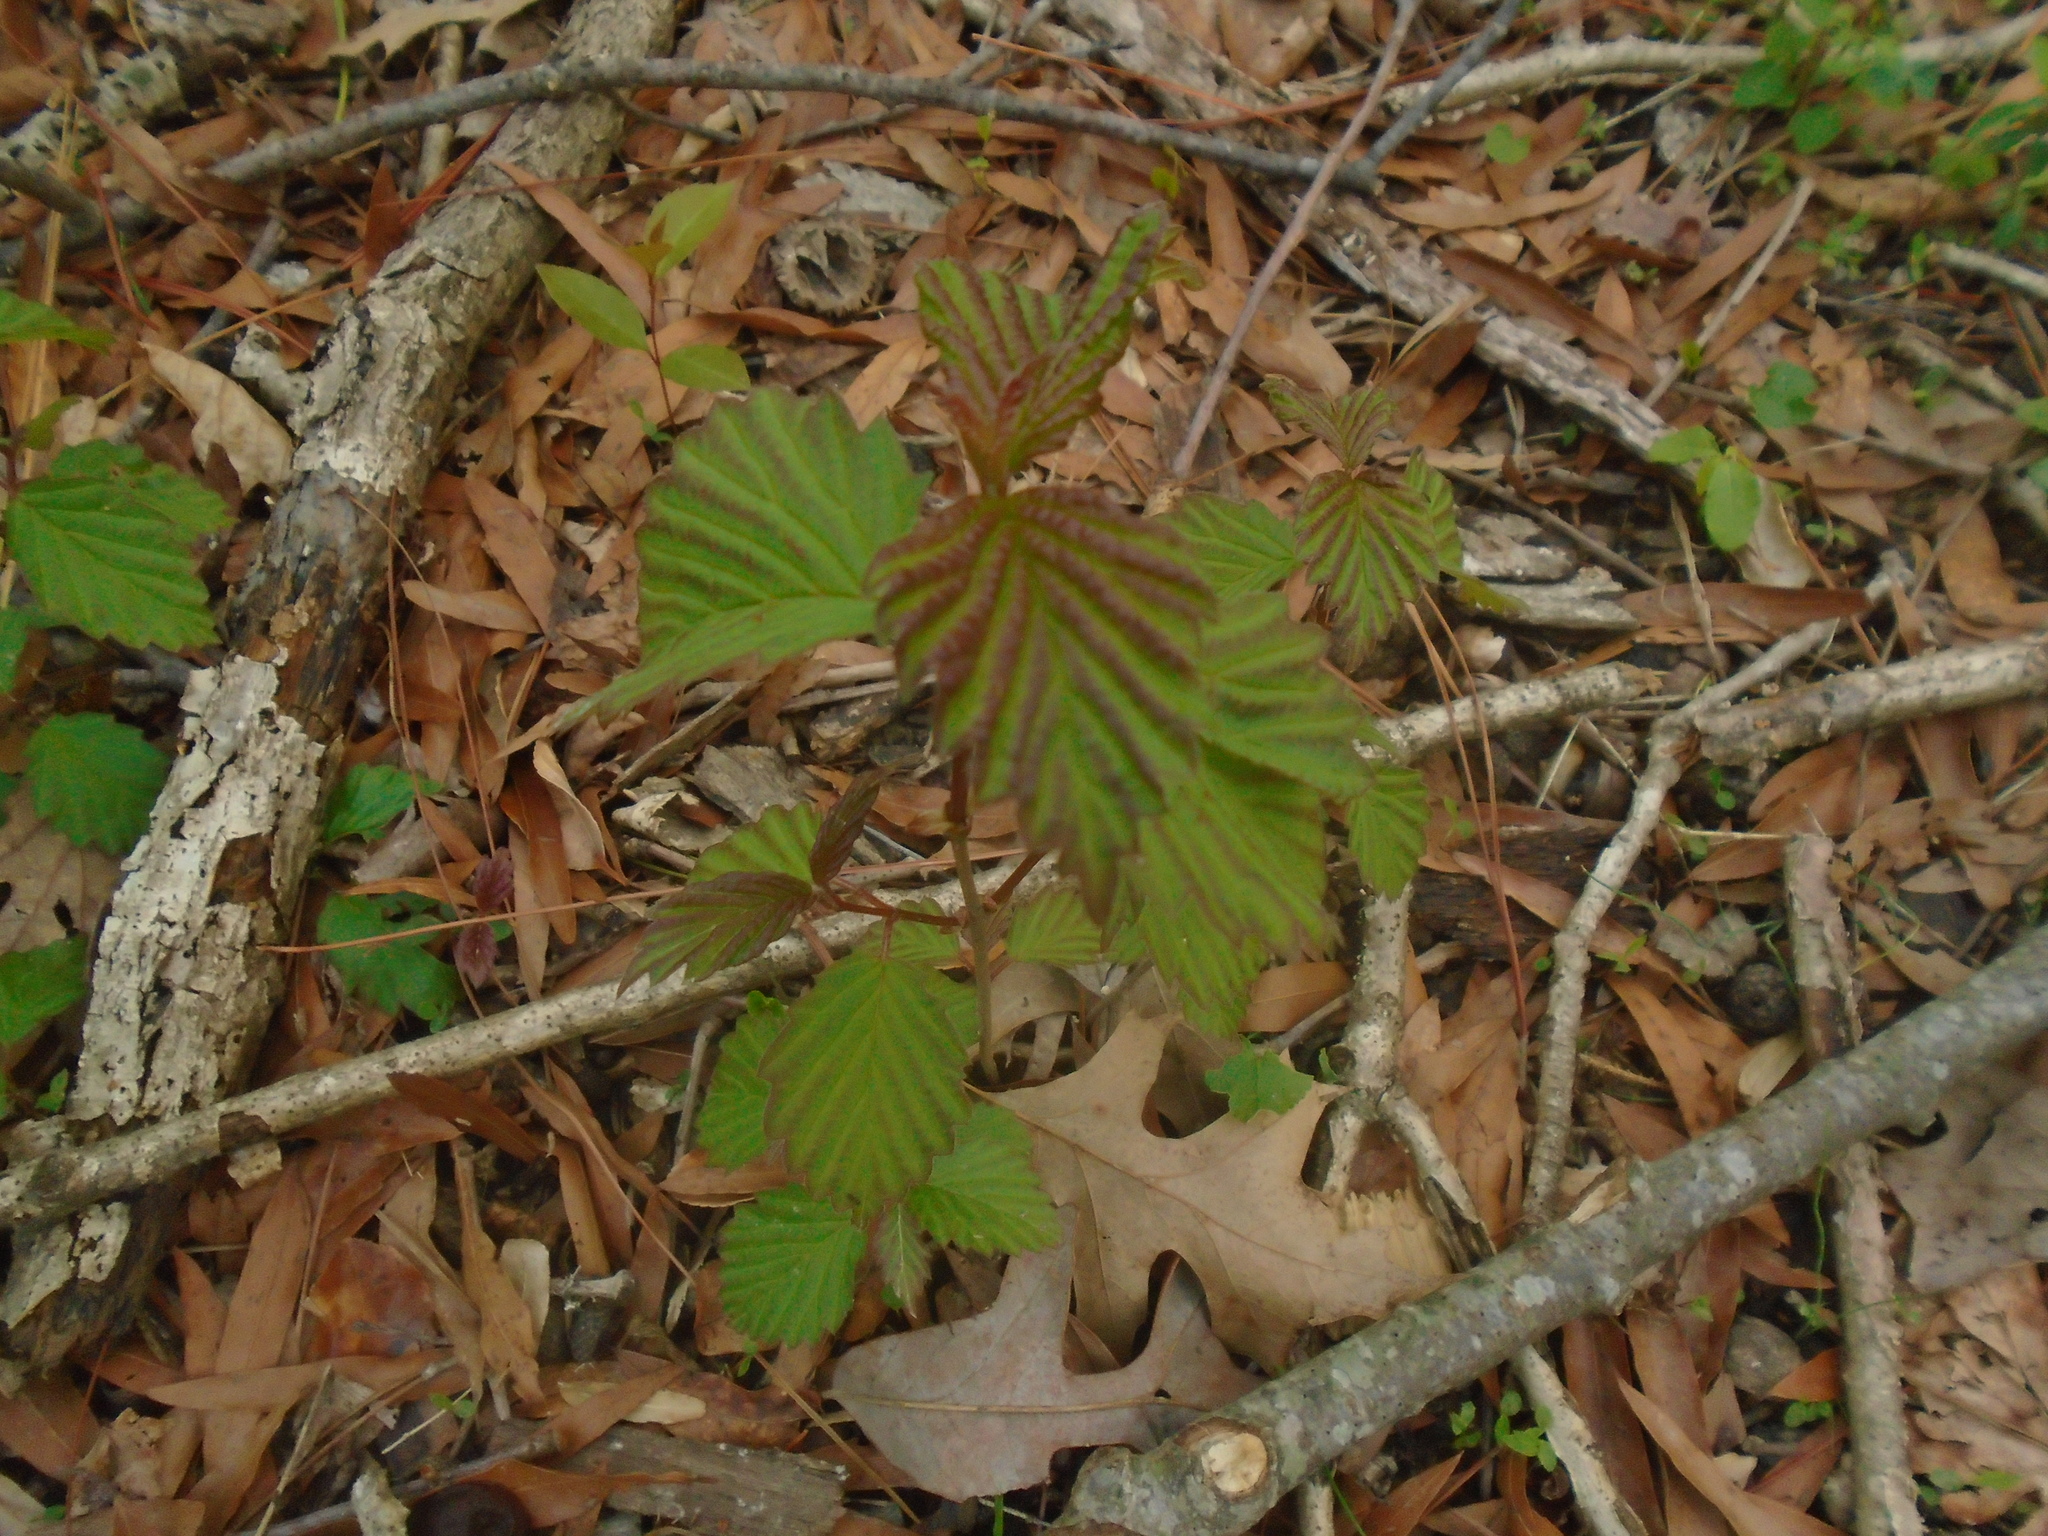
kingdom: Plantae
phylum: Tracheophyta
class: Magnoliopsida
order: Dipsacales
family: Viburnaceae
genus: Viburnum
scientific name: Viburnum dentatum
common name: Arrow-wood
